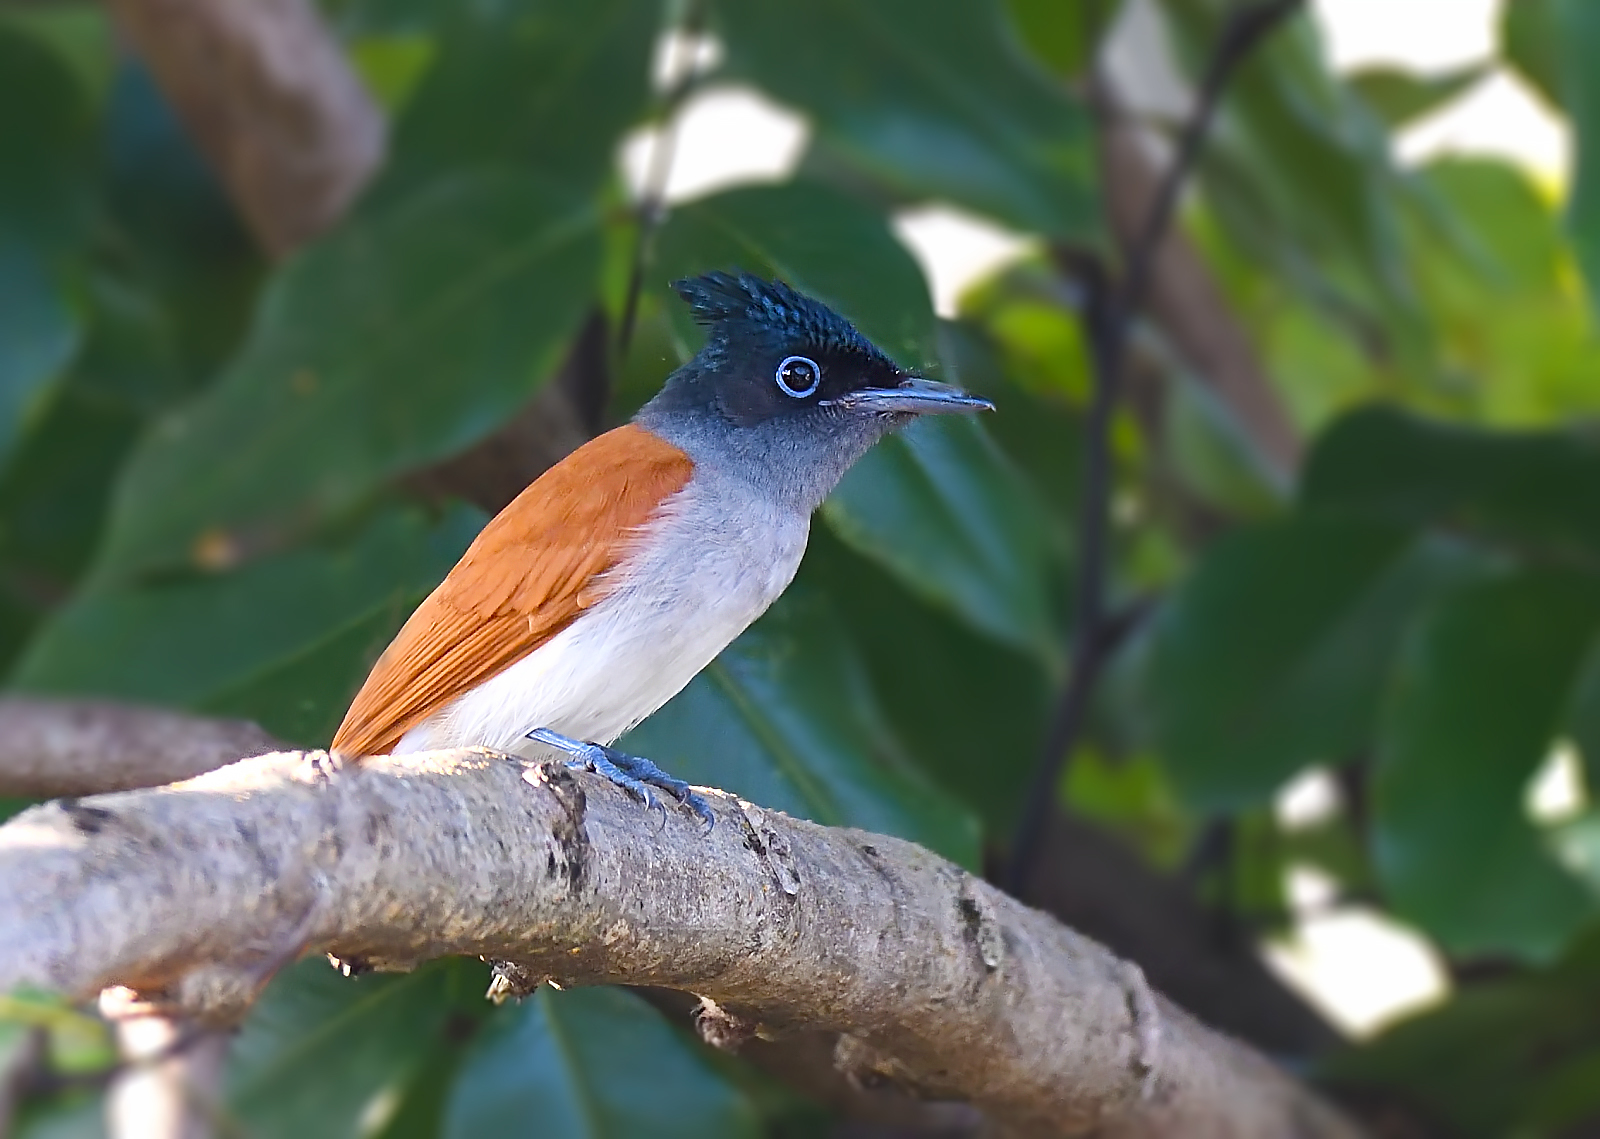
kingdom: Animalia
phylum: Chordata
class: Aves
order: Passeriformes
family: Monarchidae
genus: Terpsiphone
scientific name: Terpsiphone paradisi
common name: Indian paradise flycatcher
